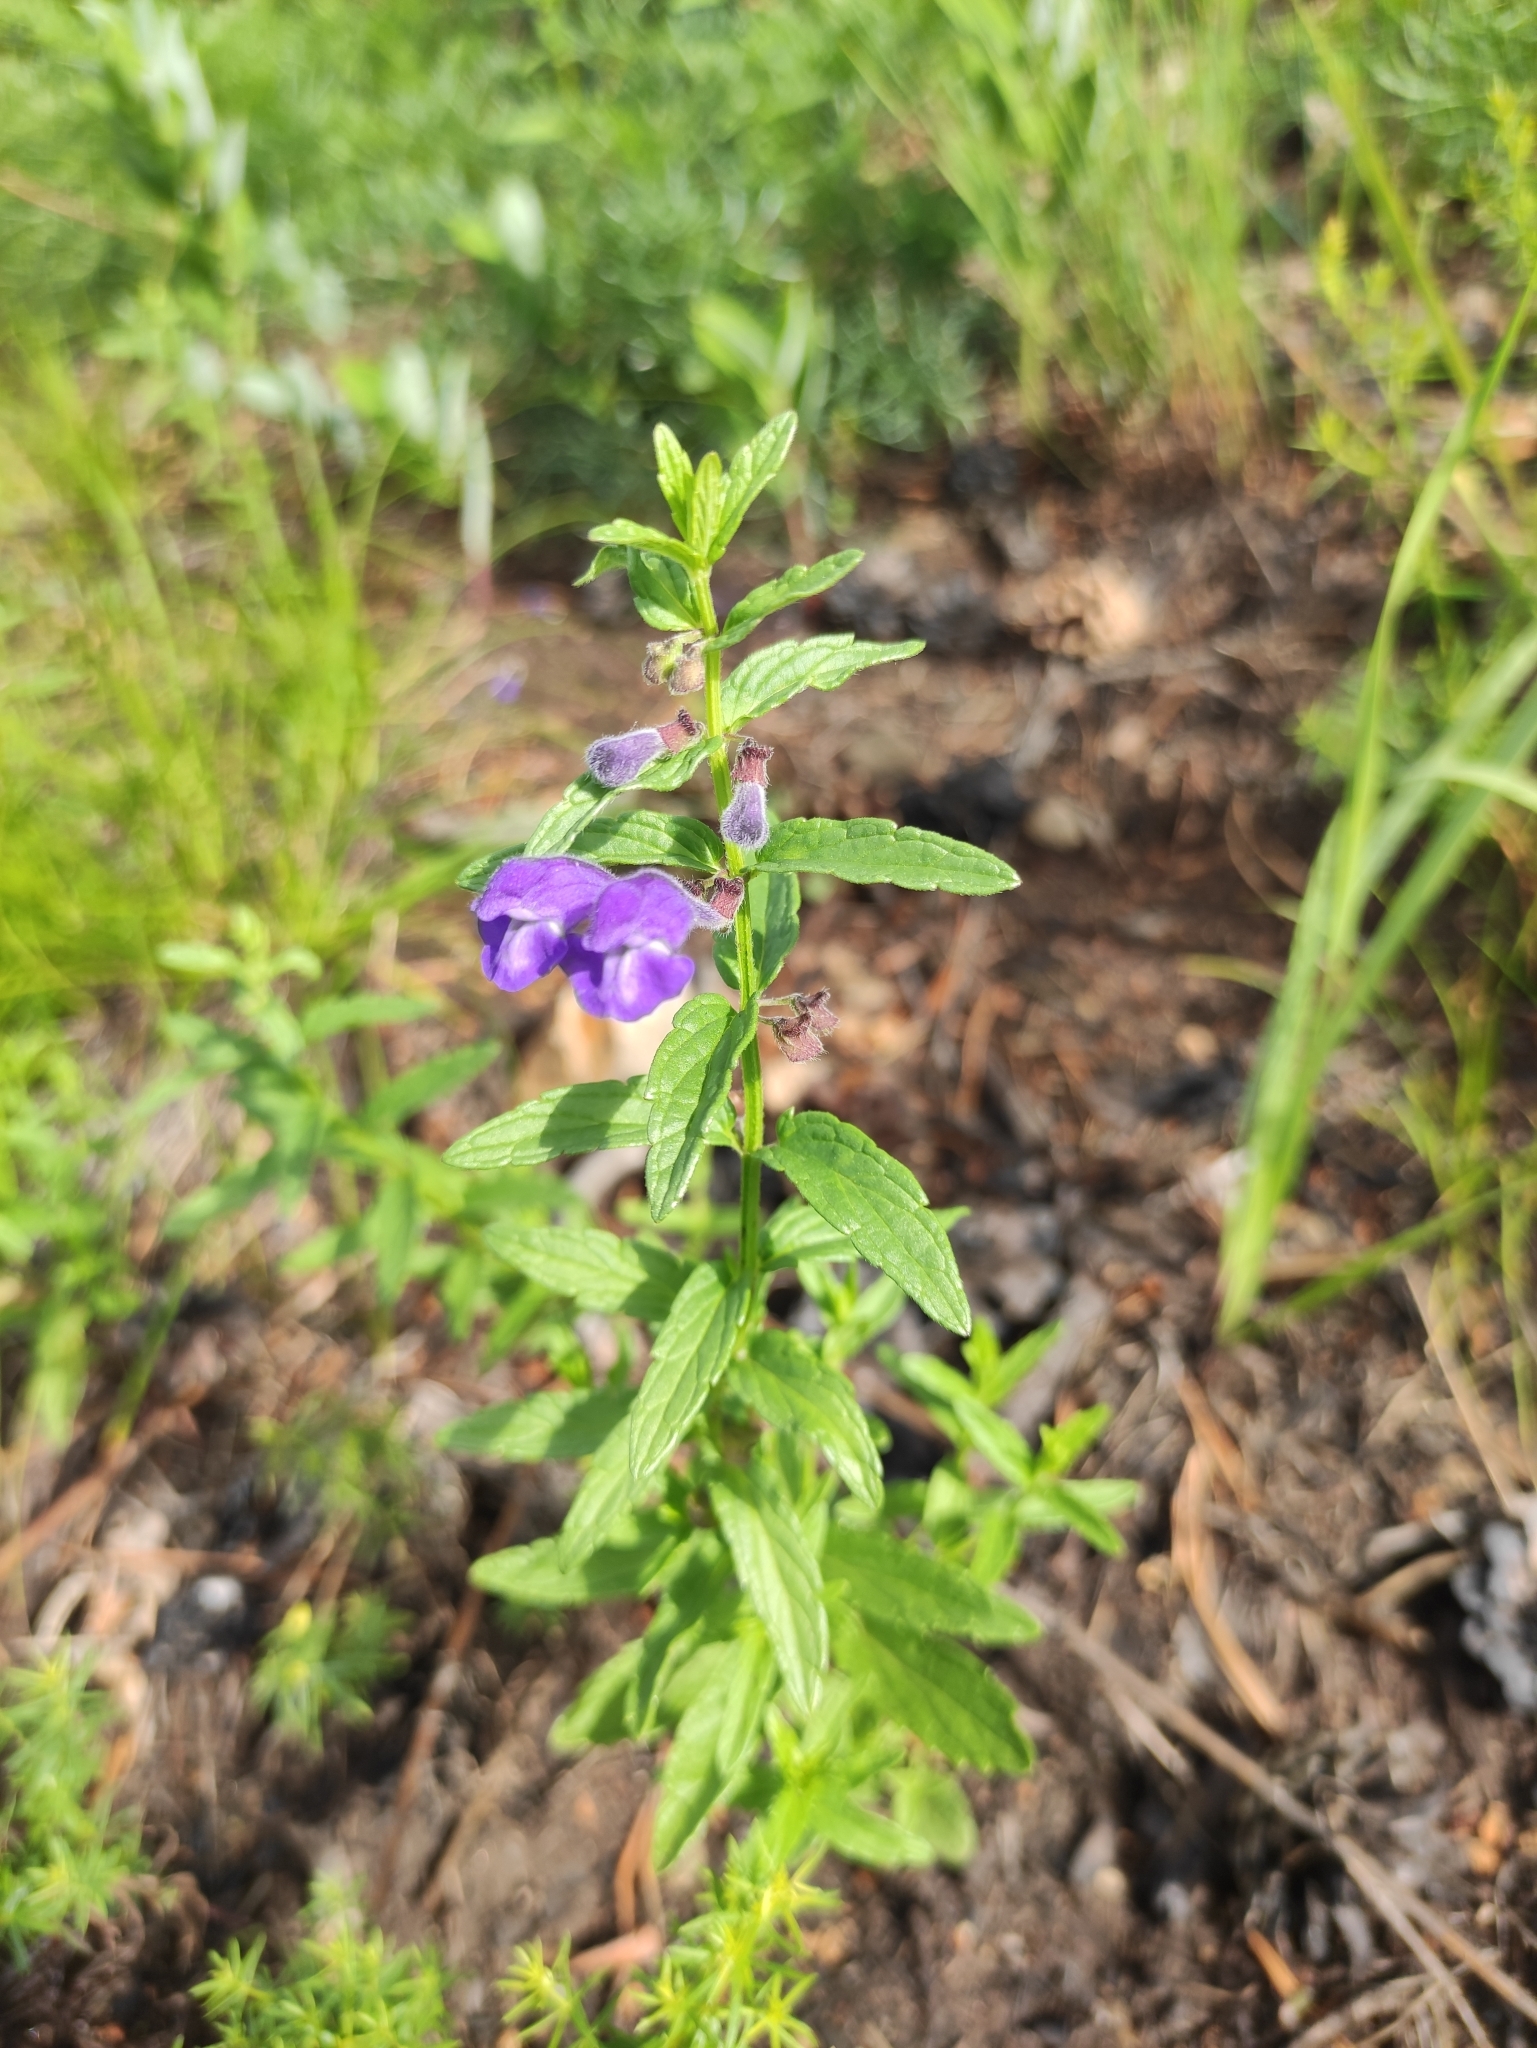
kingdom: Plantae
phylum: Tracheophyta
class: Magnoliopsida
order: Lamiales
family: Lamiaceae
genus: Scutellaria
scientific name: Scutellaria scordiifolia
